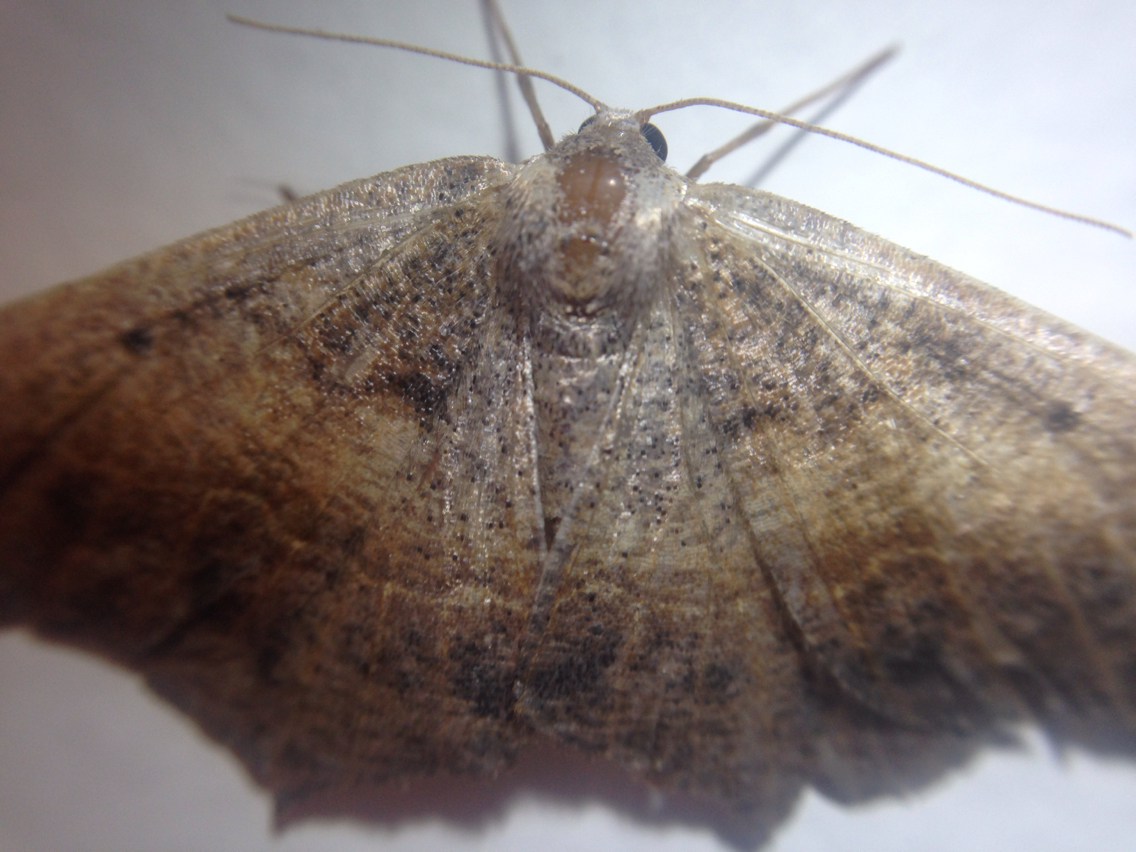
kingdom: Animalia
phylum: Arthropoda
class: Insecta
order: Lepidoptera
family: Geometridae
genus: Prochoerodes
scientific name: Prochoerodes forficaria
